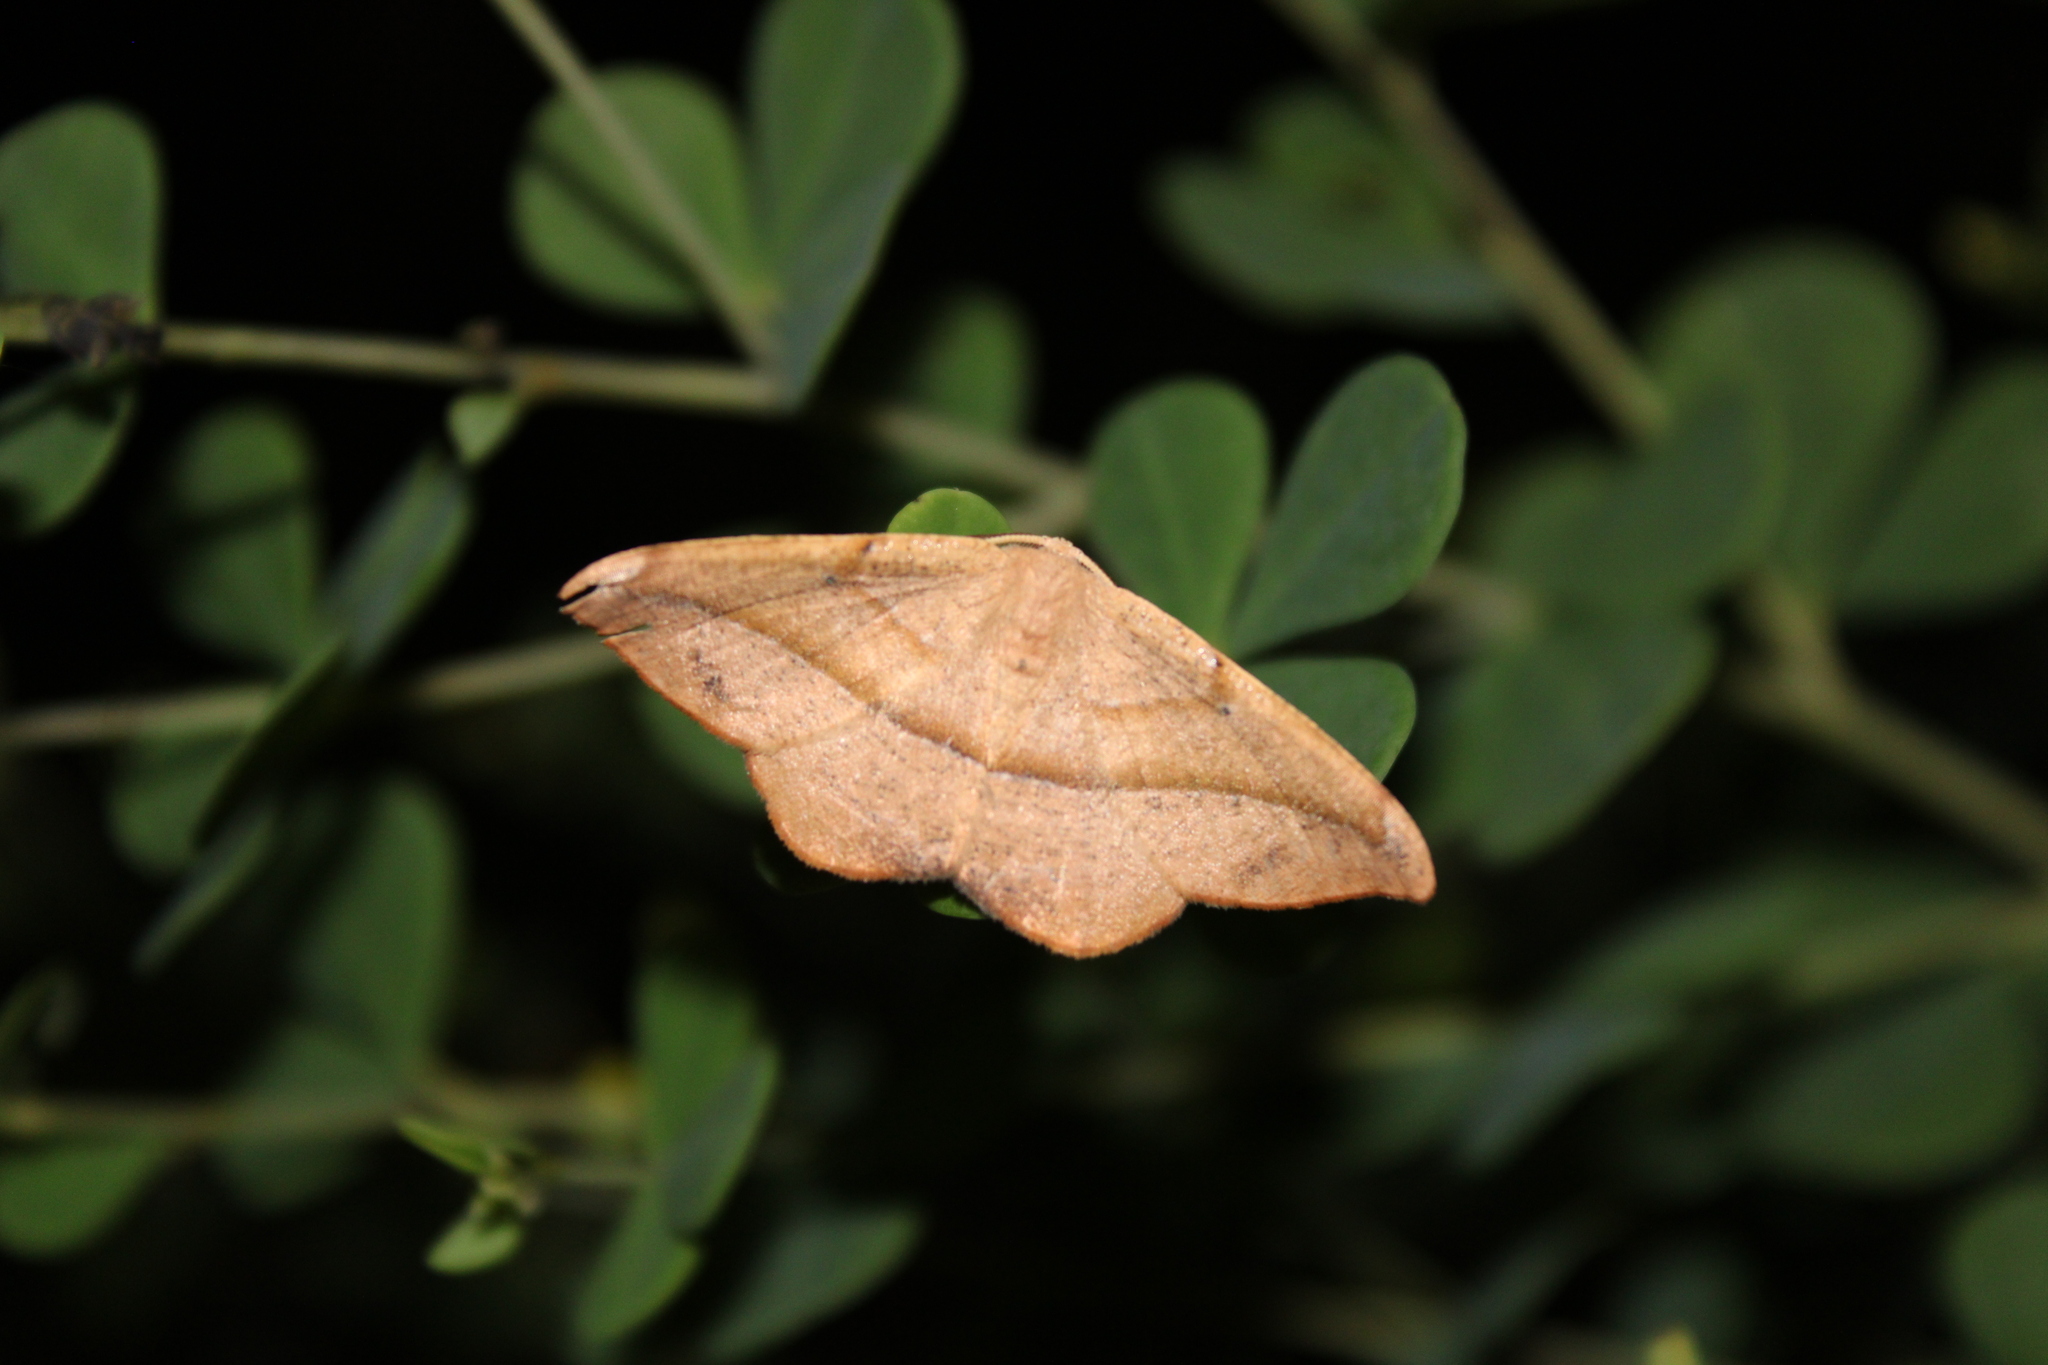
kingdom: Animalia
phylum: Arthropoda
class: Insecta
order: Lepidoptera
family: Geometridae
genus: Patalene
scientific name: Patalene olyzonaria
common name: Juniper geometer moth
